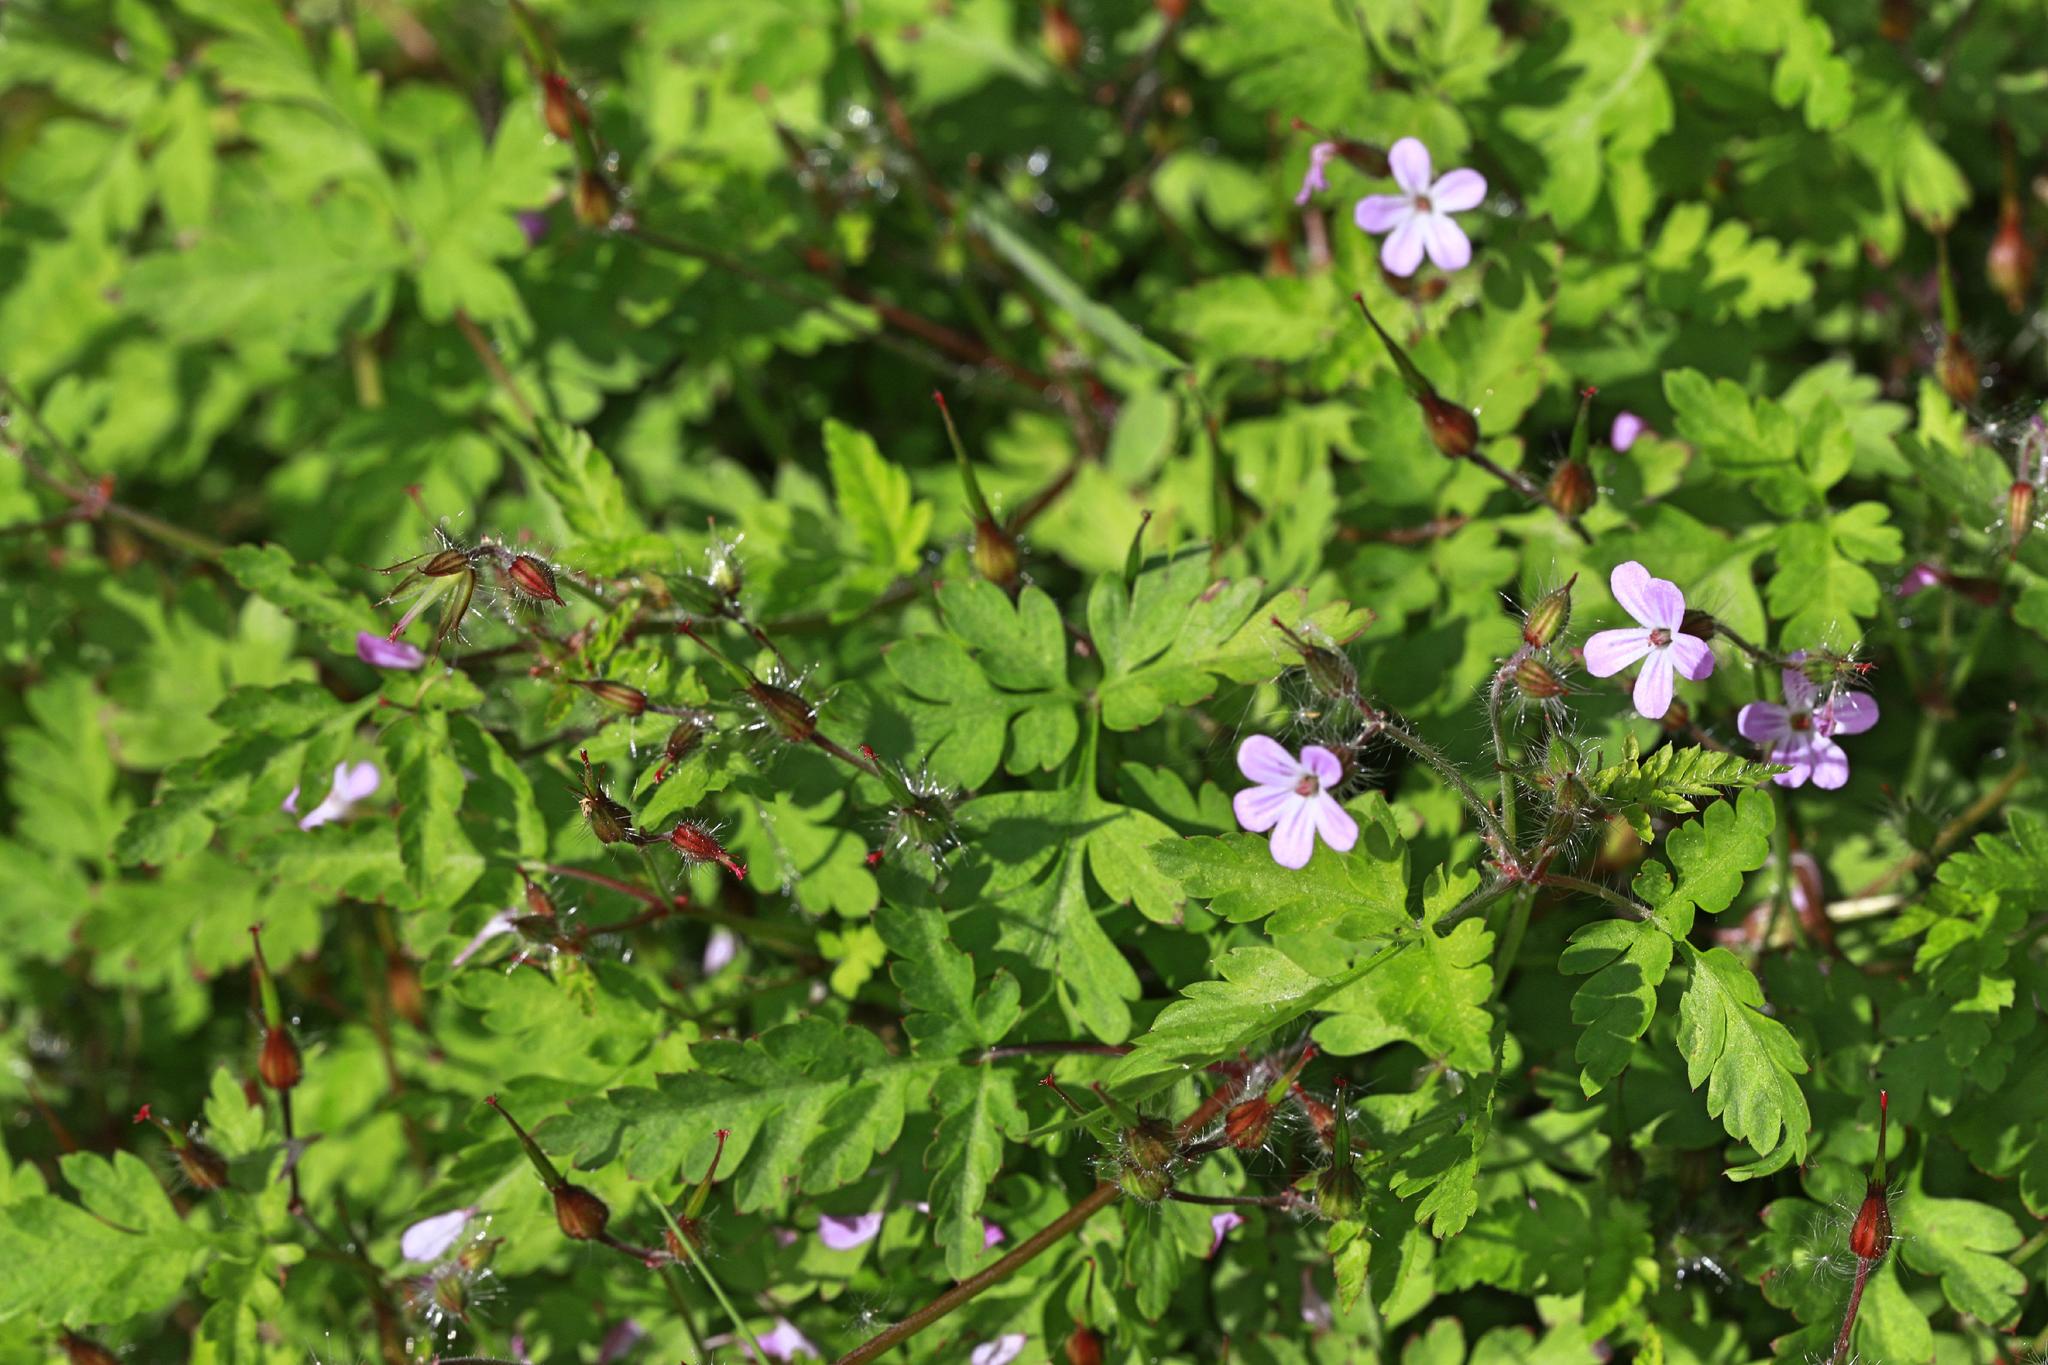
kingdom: Plantae
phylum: Tracheophyta
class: Magnoliopsida
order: Geraniales
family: Geraniaceae
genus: Geranium
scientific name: Geranium robertianum
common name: Herb-robert
